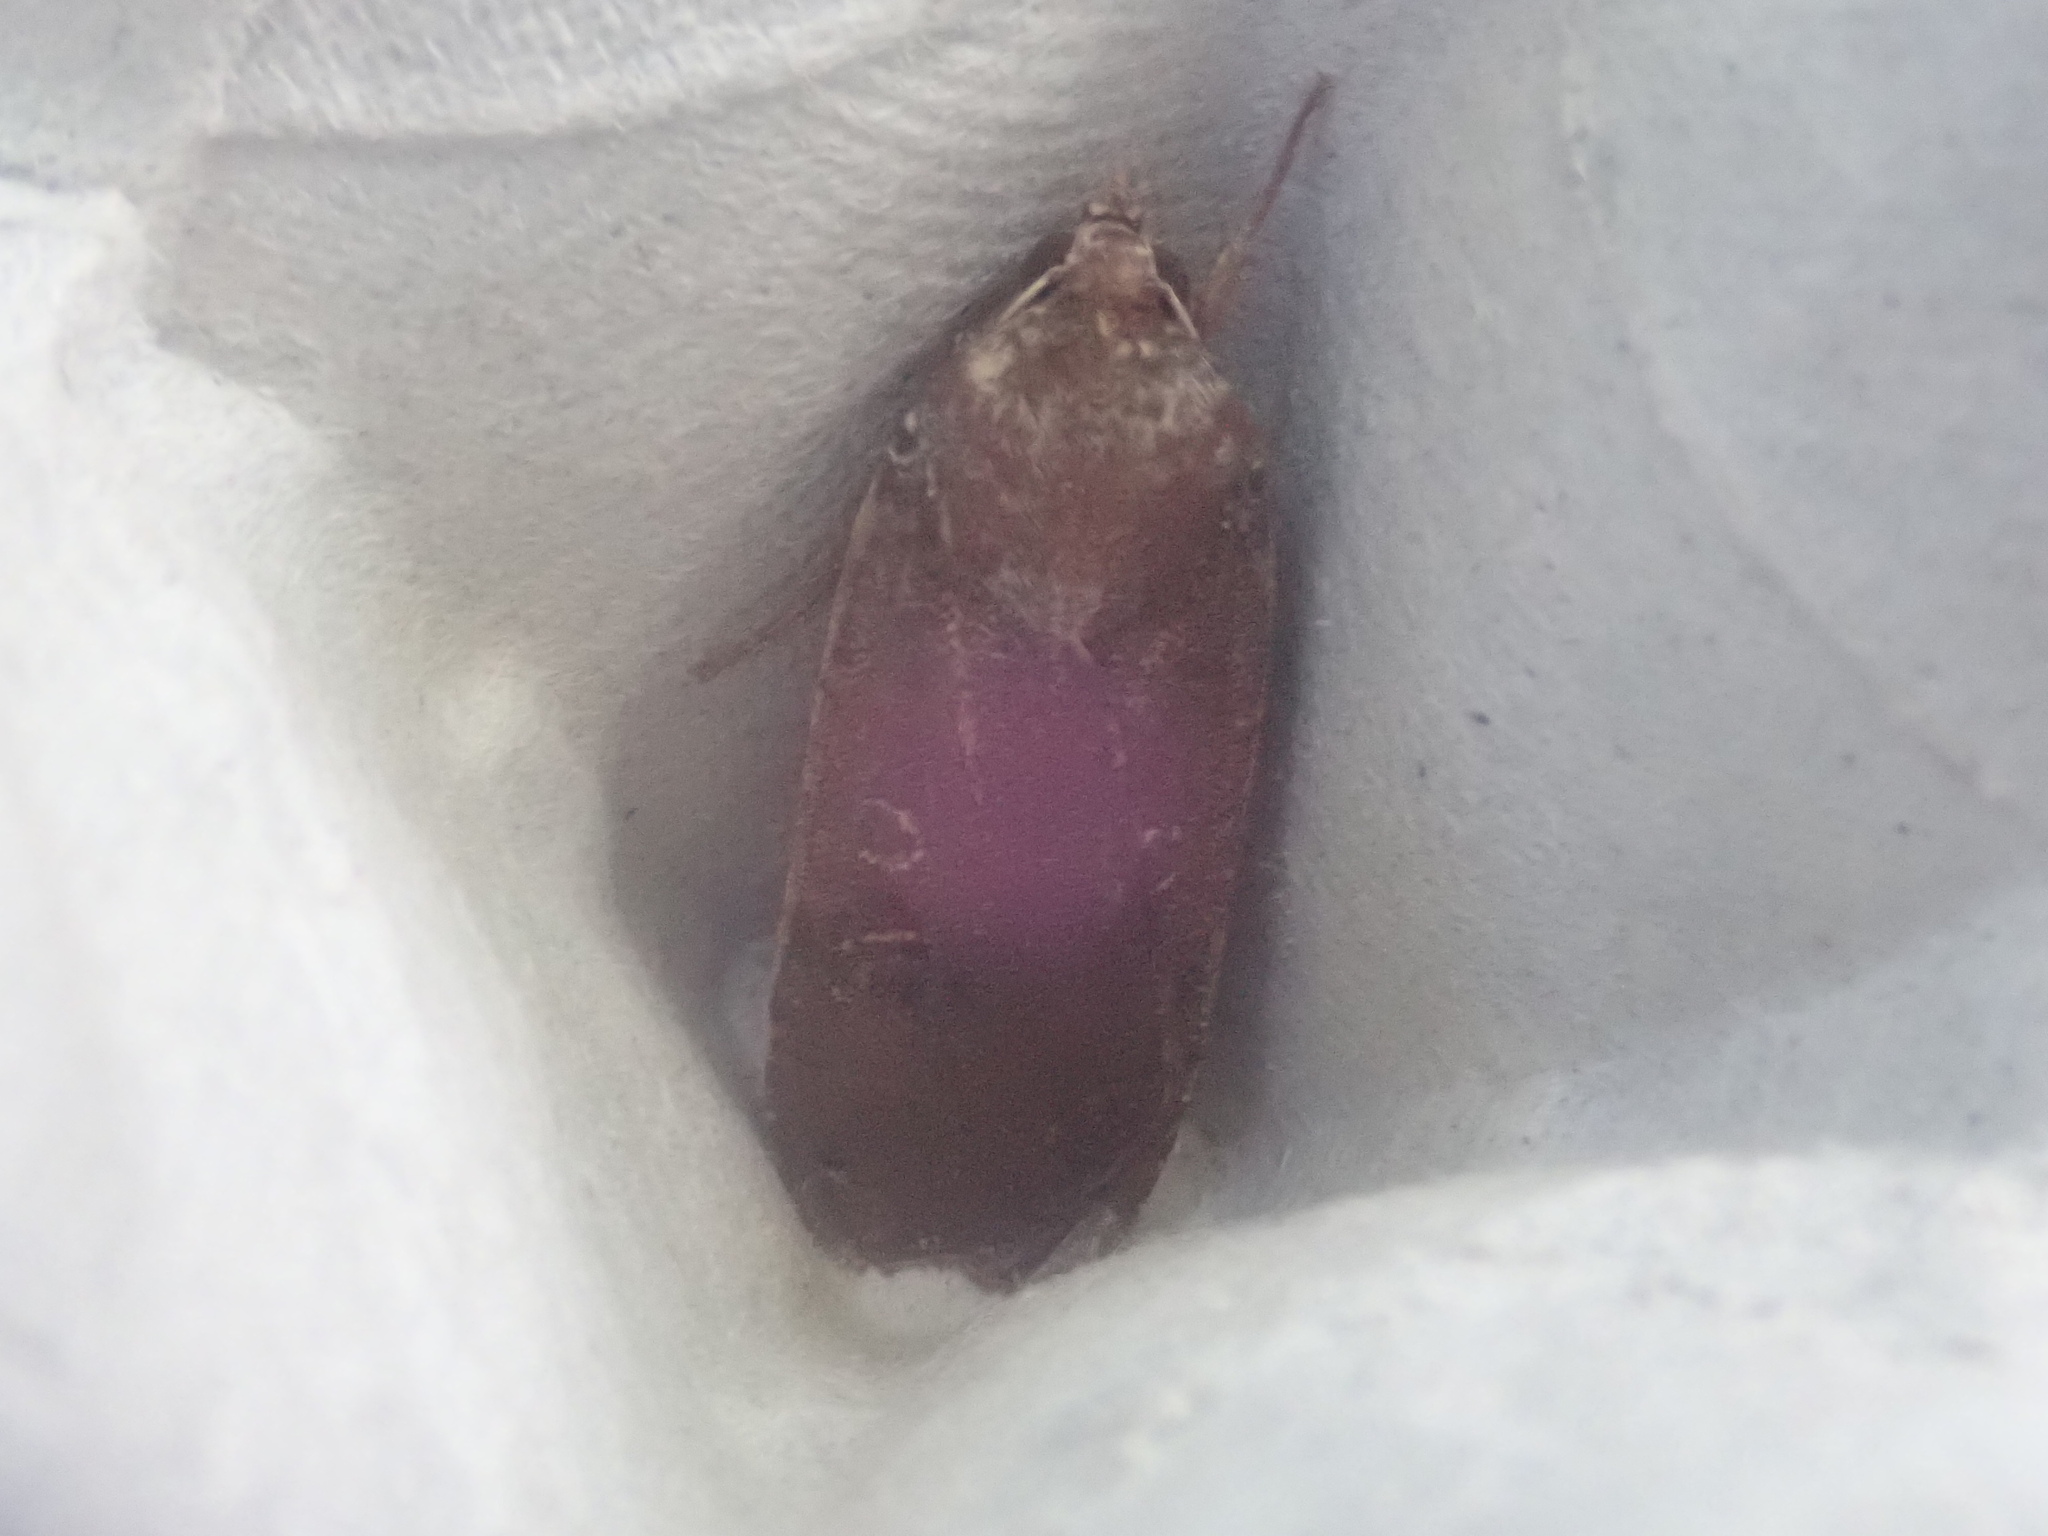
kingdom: Animalia
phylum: Arthropoda
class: Insecta
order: Lepidoptera
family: Noctuidae
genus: Noctua
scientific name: Noctua pronuba
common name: Large yellow underwing
